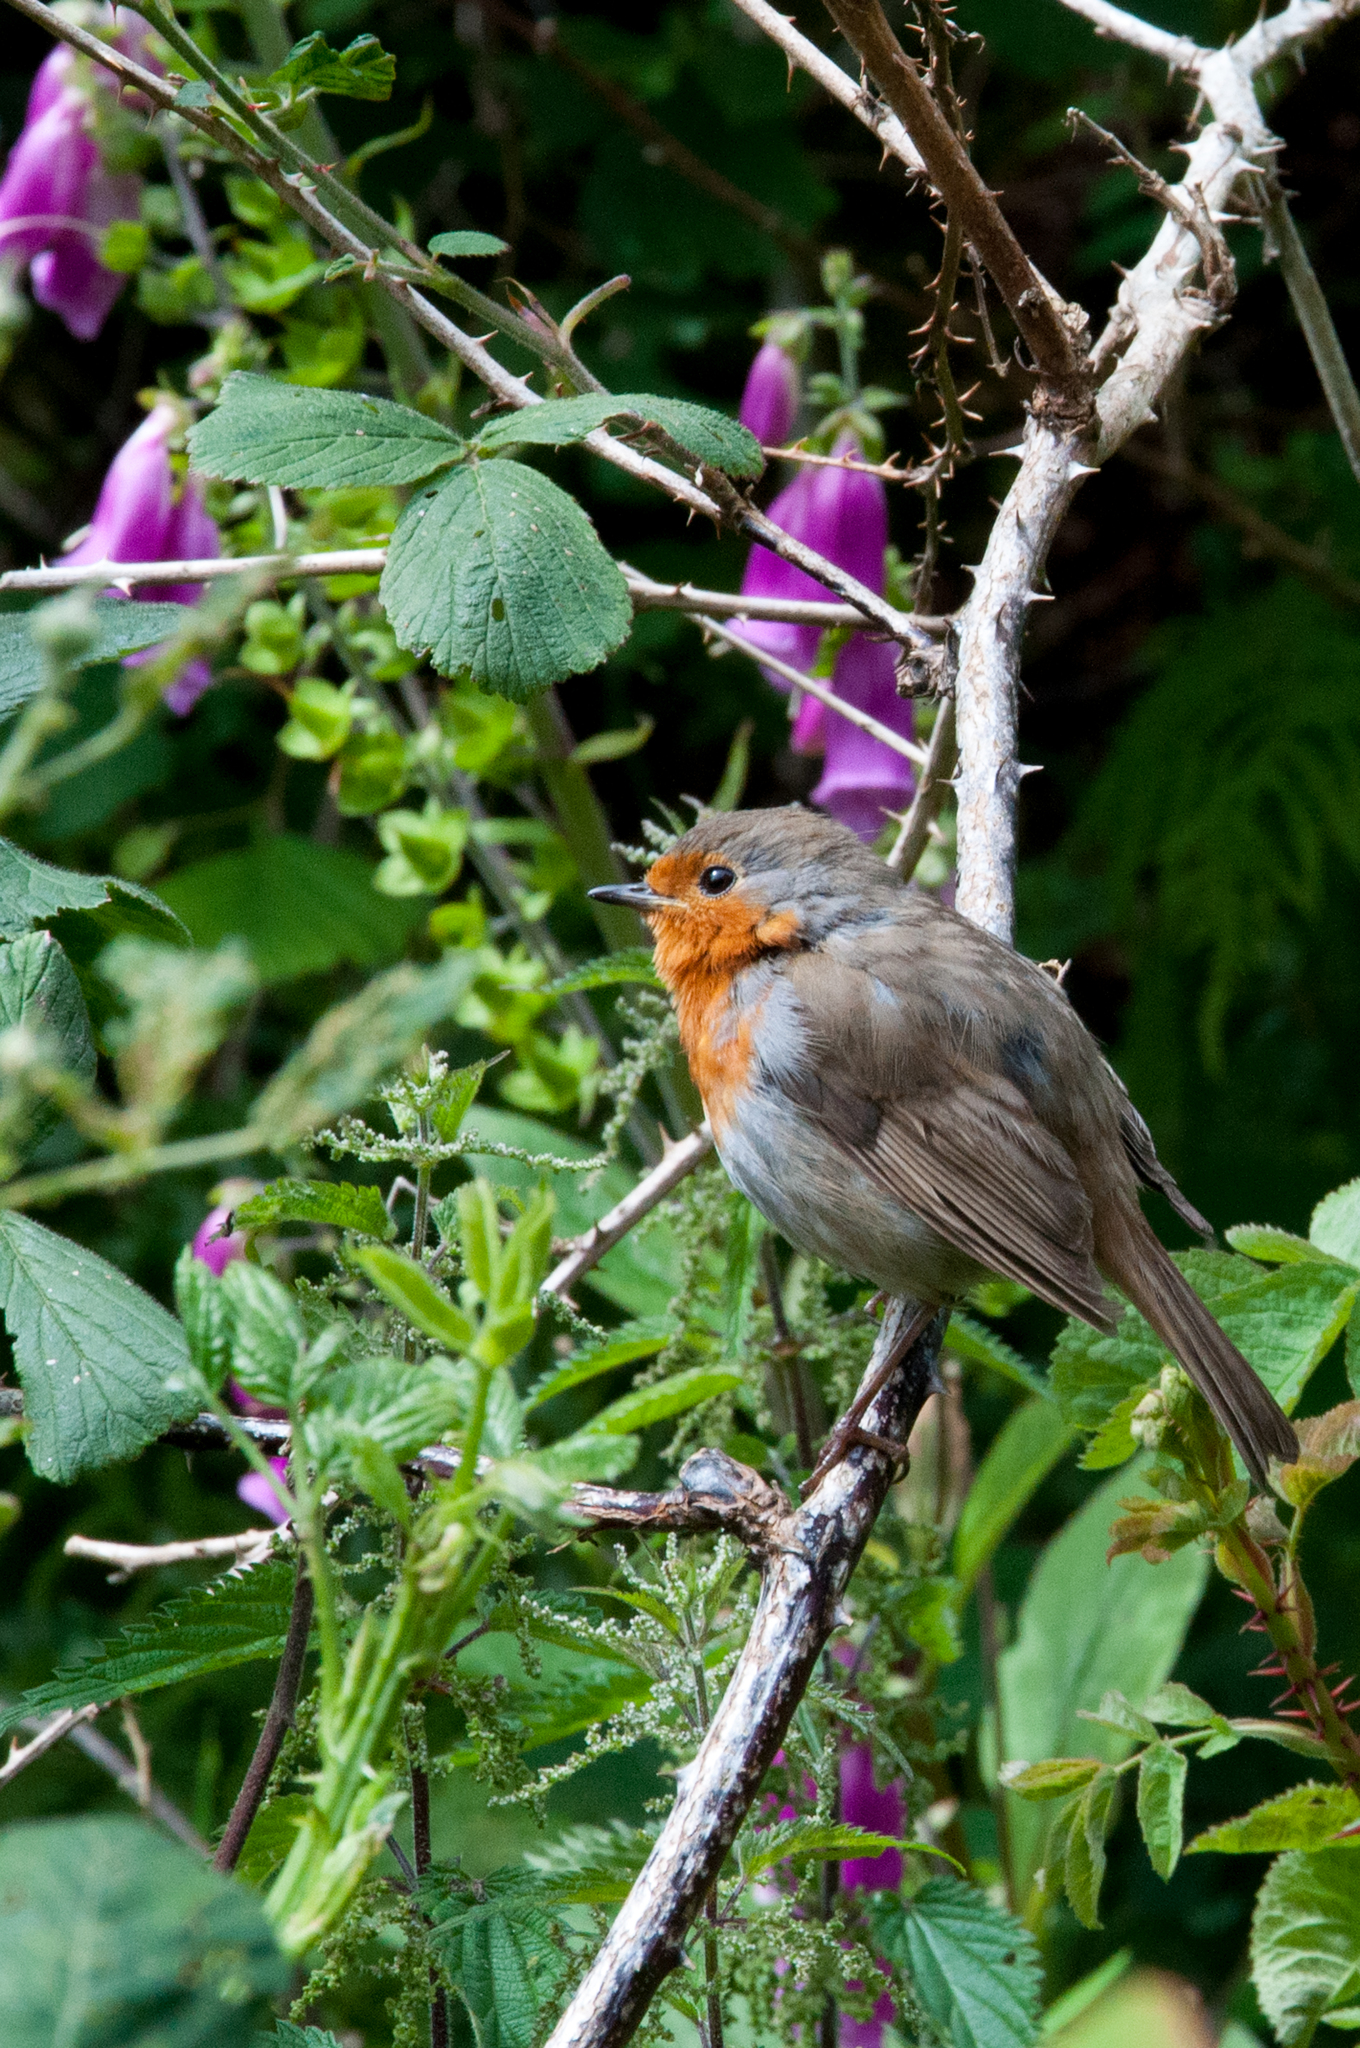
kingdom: Animalia
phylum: Chordata
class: Aves
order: Passeriformes
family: Muscicapidae
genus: Erithacus
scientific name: Erithacus rubecula
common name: European robin
